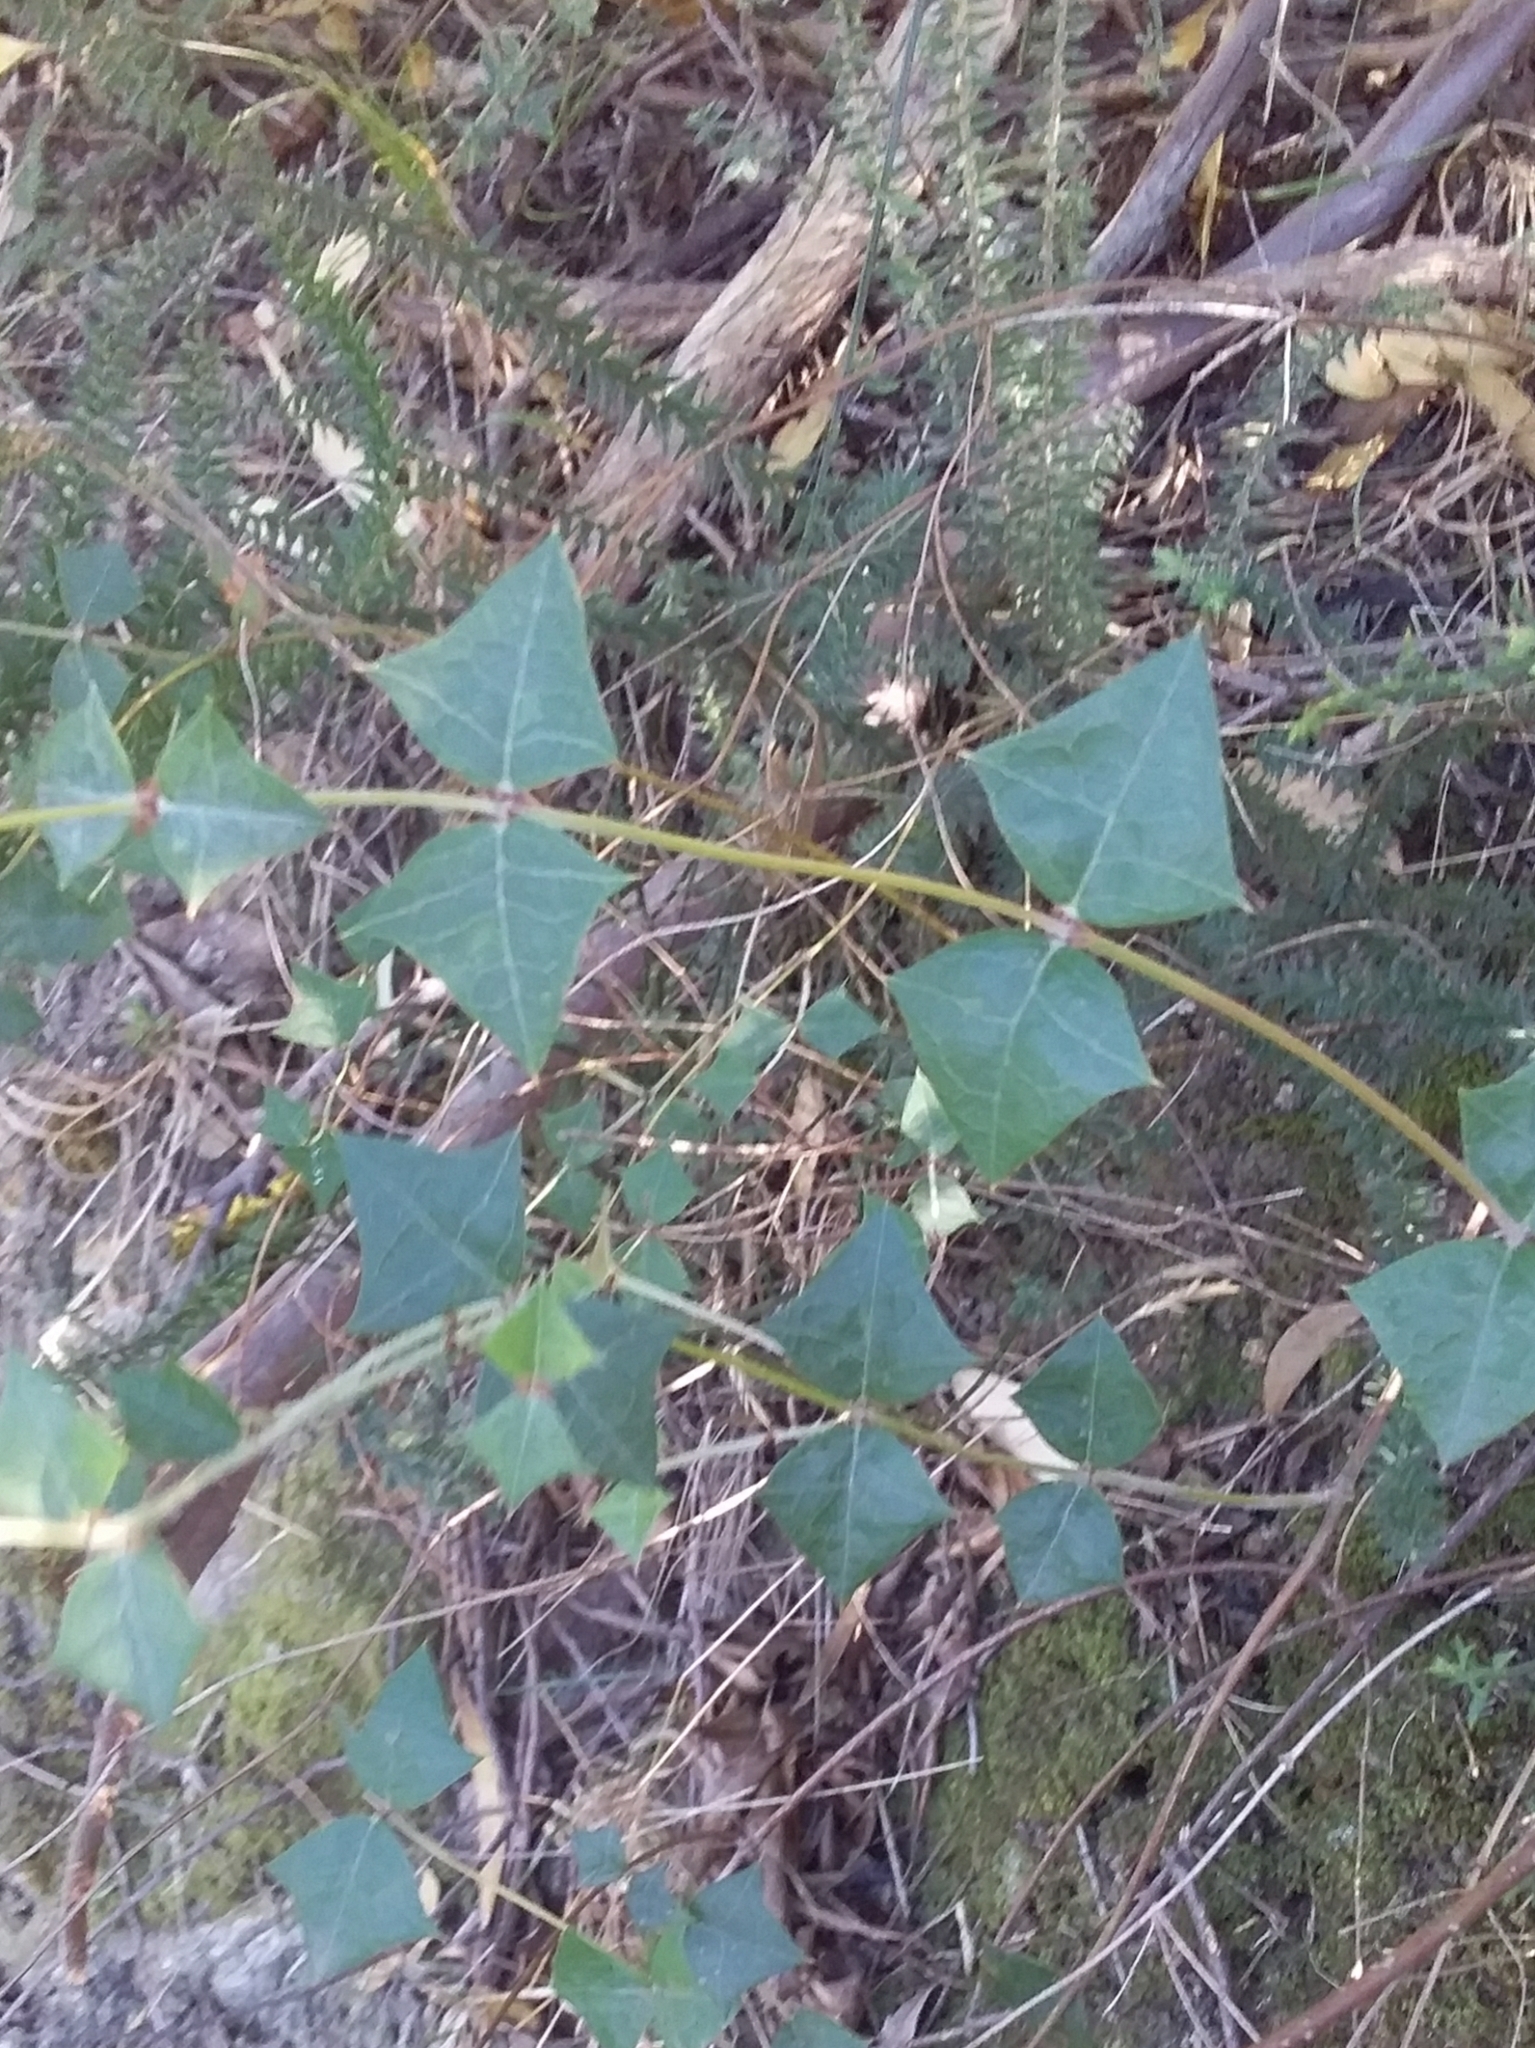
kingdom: Plantae
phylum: Tracheophyta
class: Magnoliopsida
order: Fabales
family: Fabaceae
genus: Platylobium
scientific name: Platylobium obtusangulum
